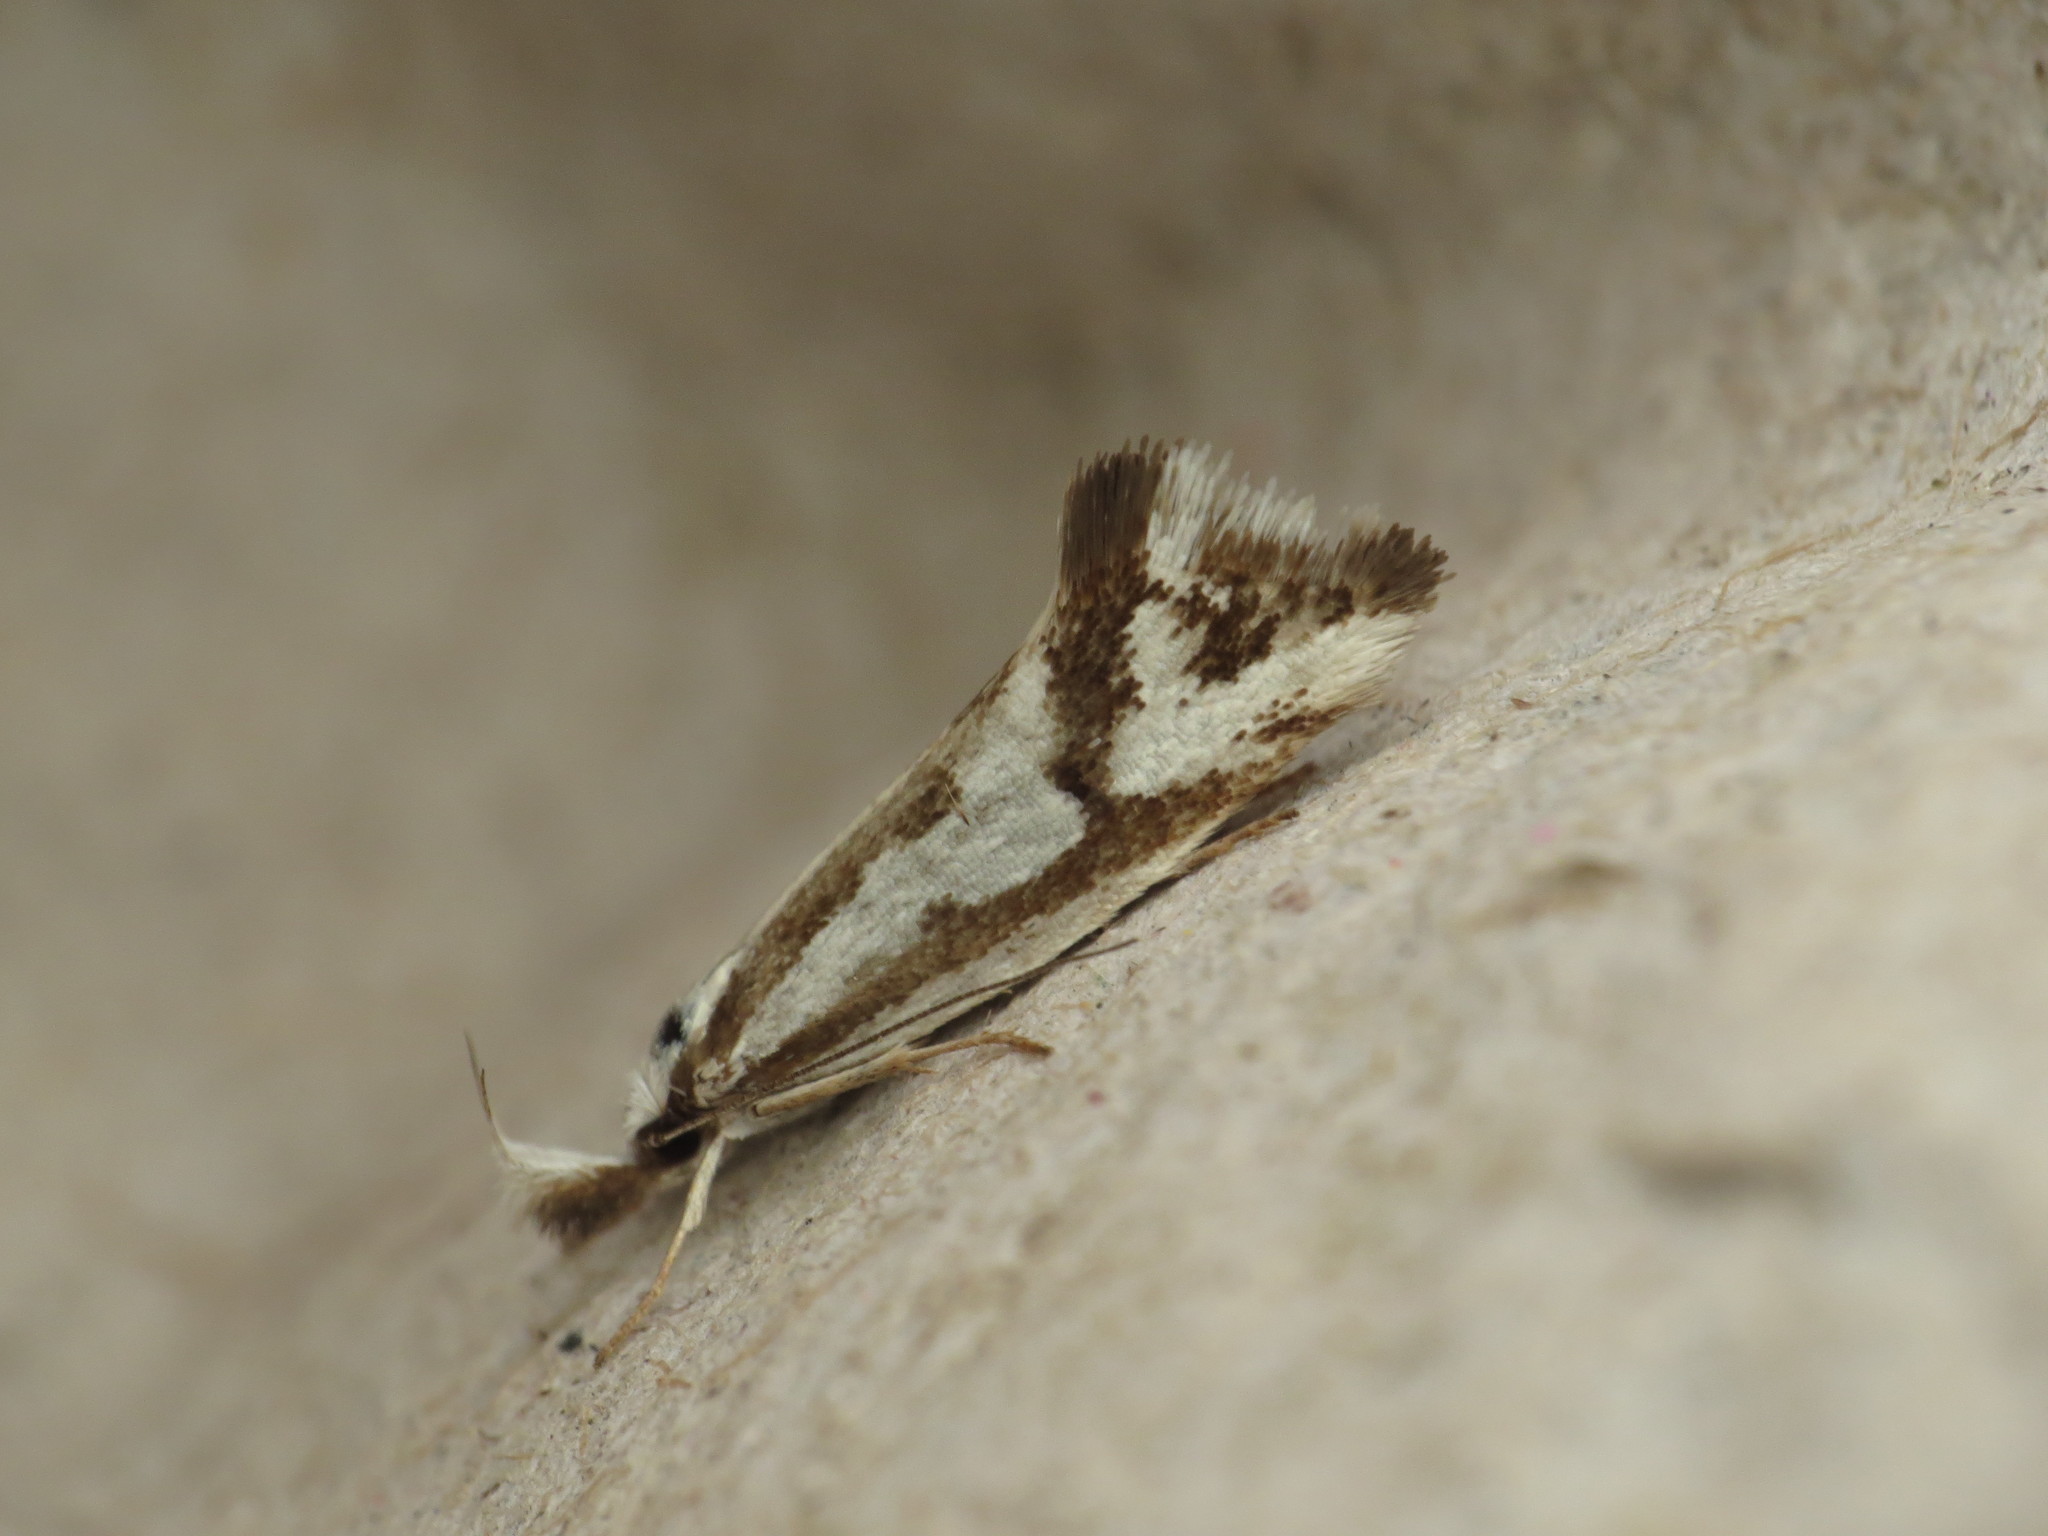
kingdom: Animalia
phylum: Arthropoda
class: Insecta
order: Lepidoptera
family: Oecophoridae
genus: Orthiastis
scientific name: Orthiastis hyperocha
